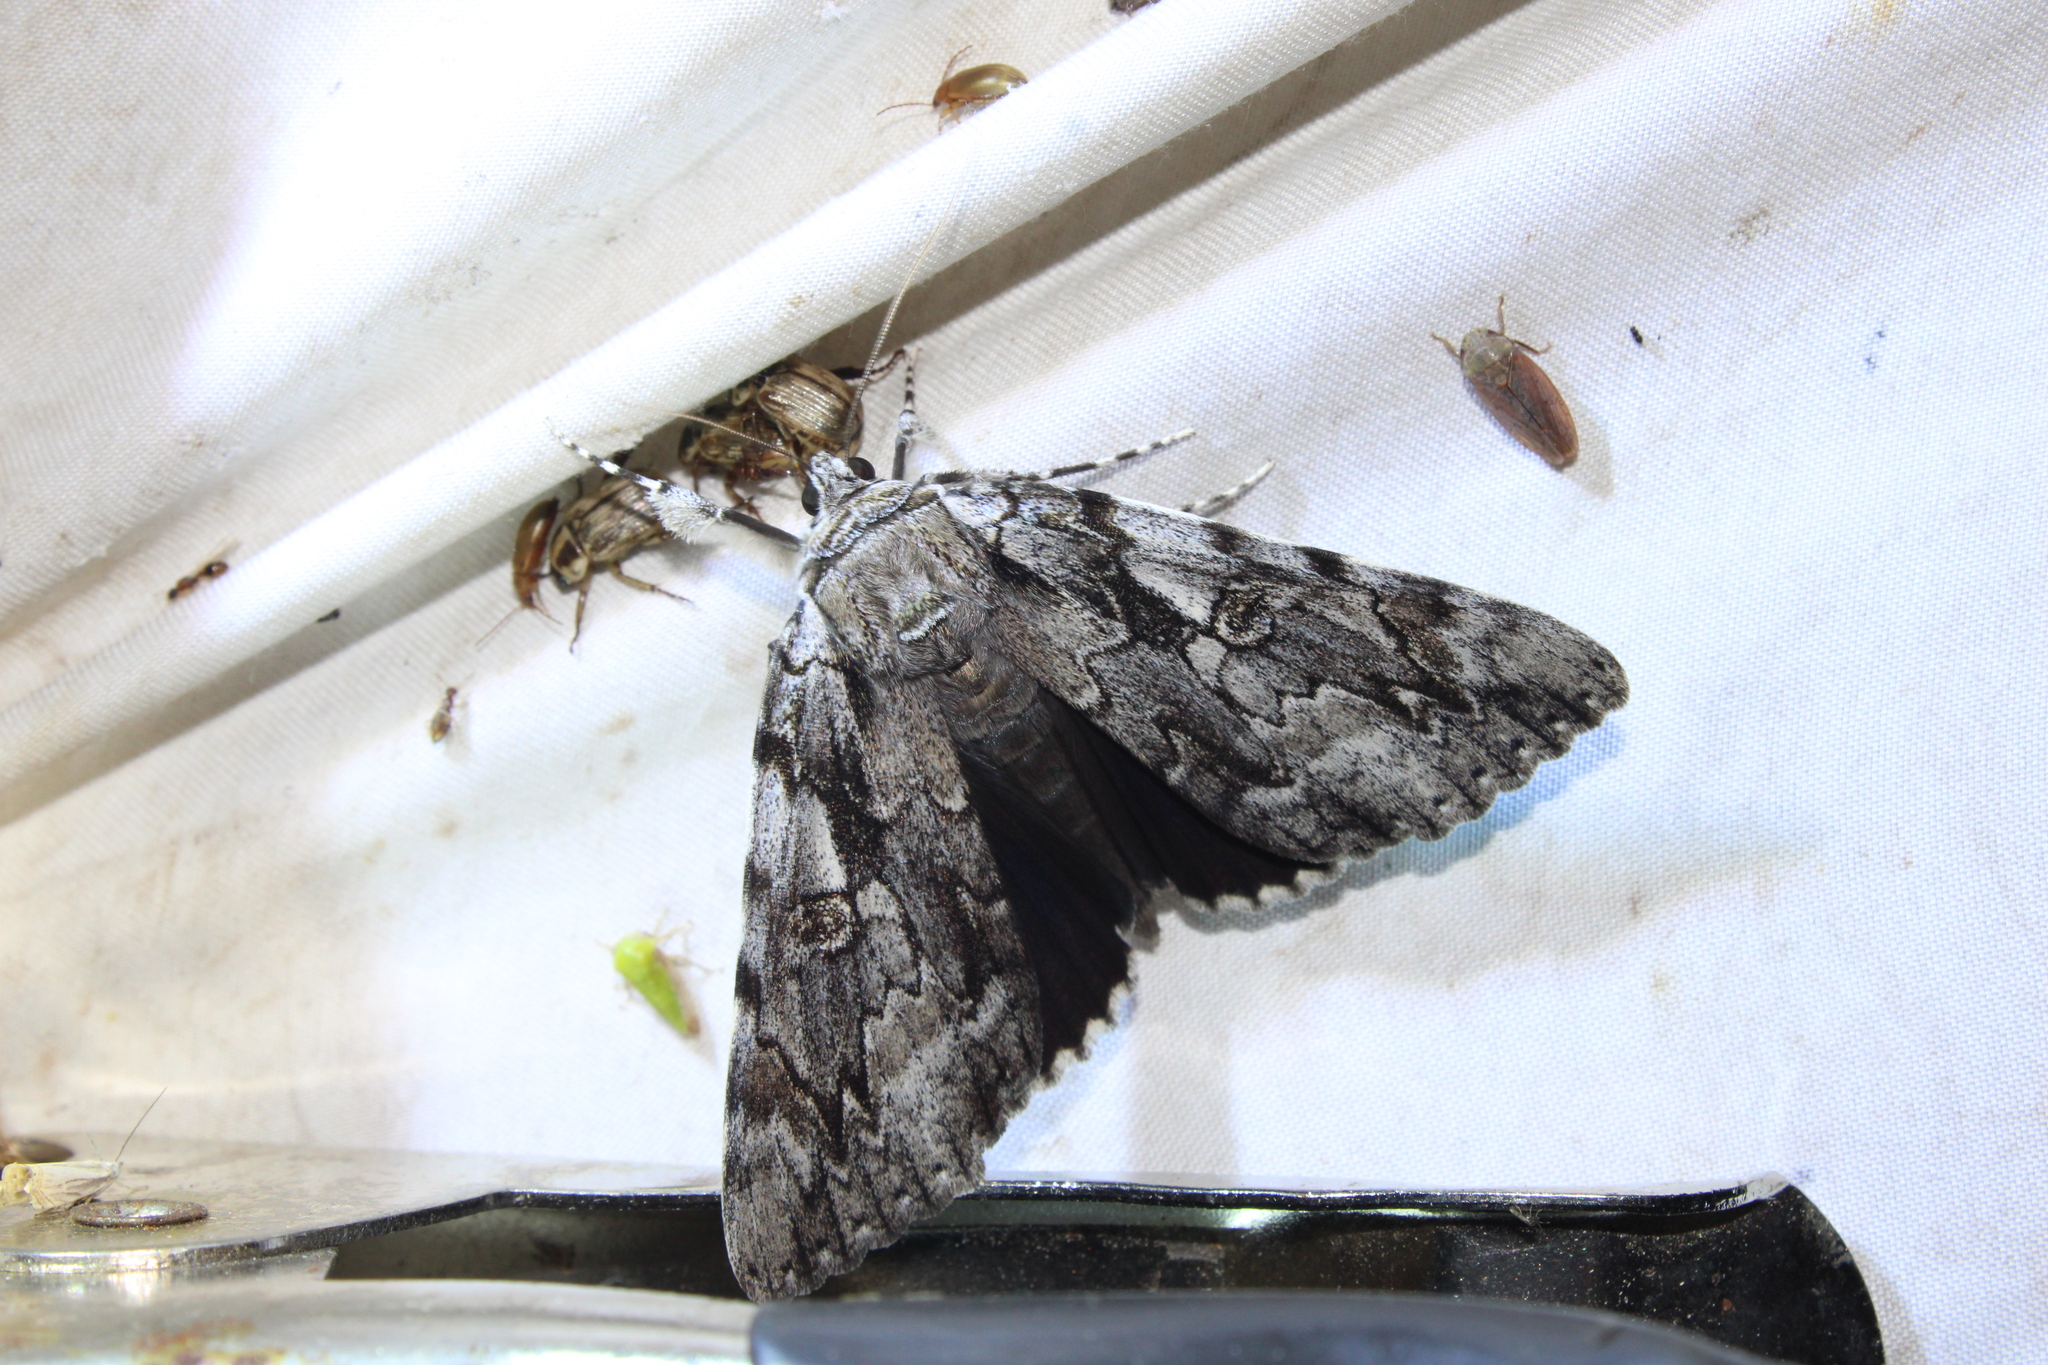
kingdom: Animalia
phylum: Arthropoda
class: Insecta
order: Lepidoptera
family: Erebidae
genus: Catocala
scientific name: Catocala dejecta
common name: Dejected underwing
